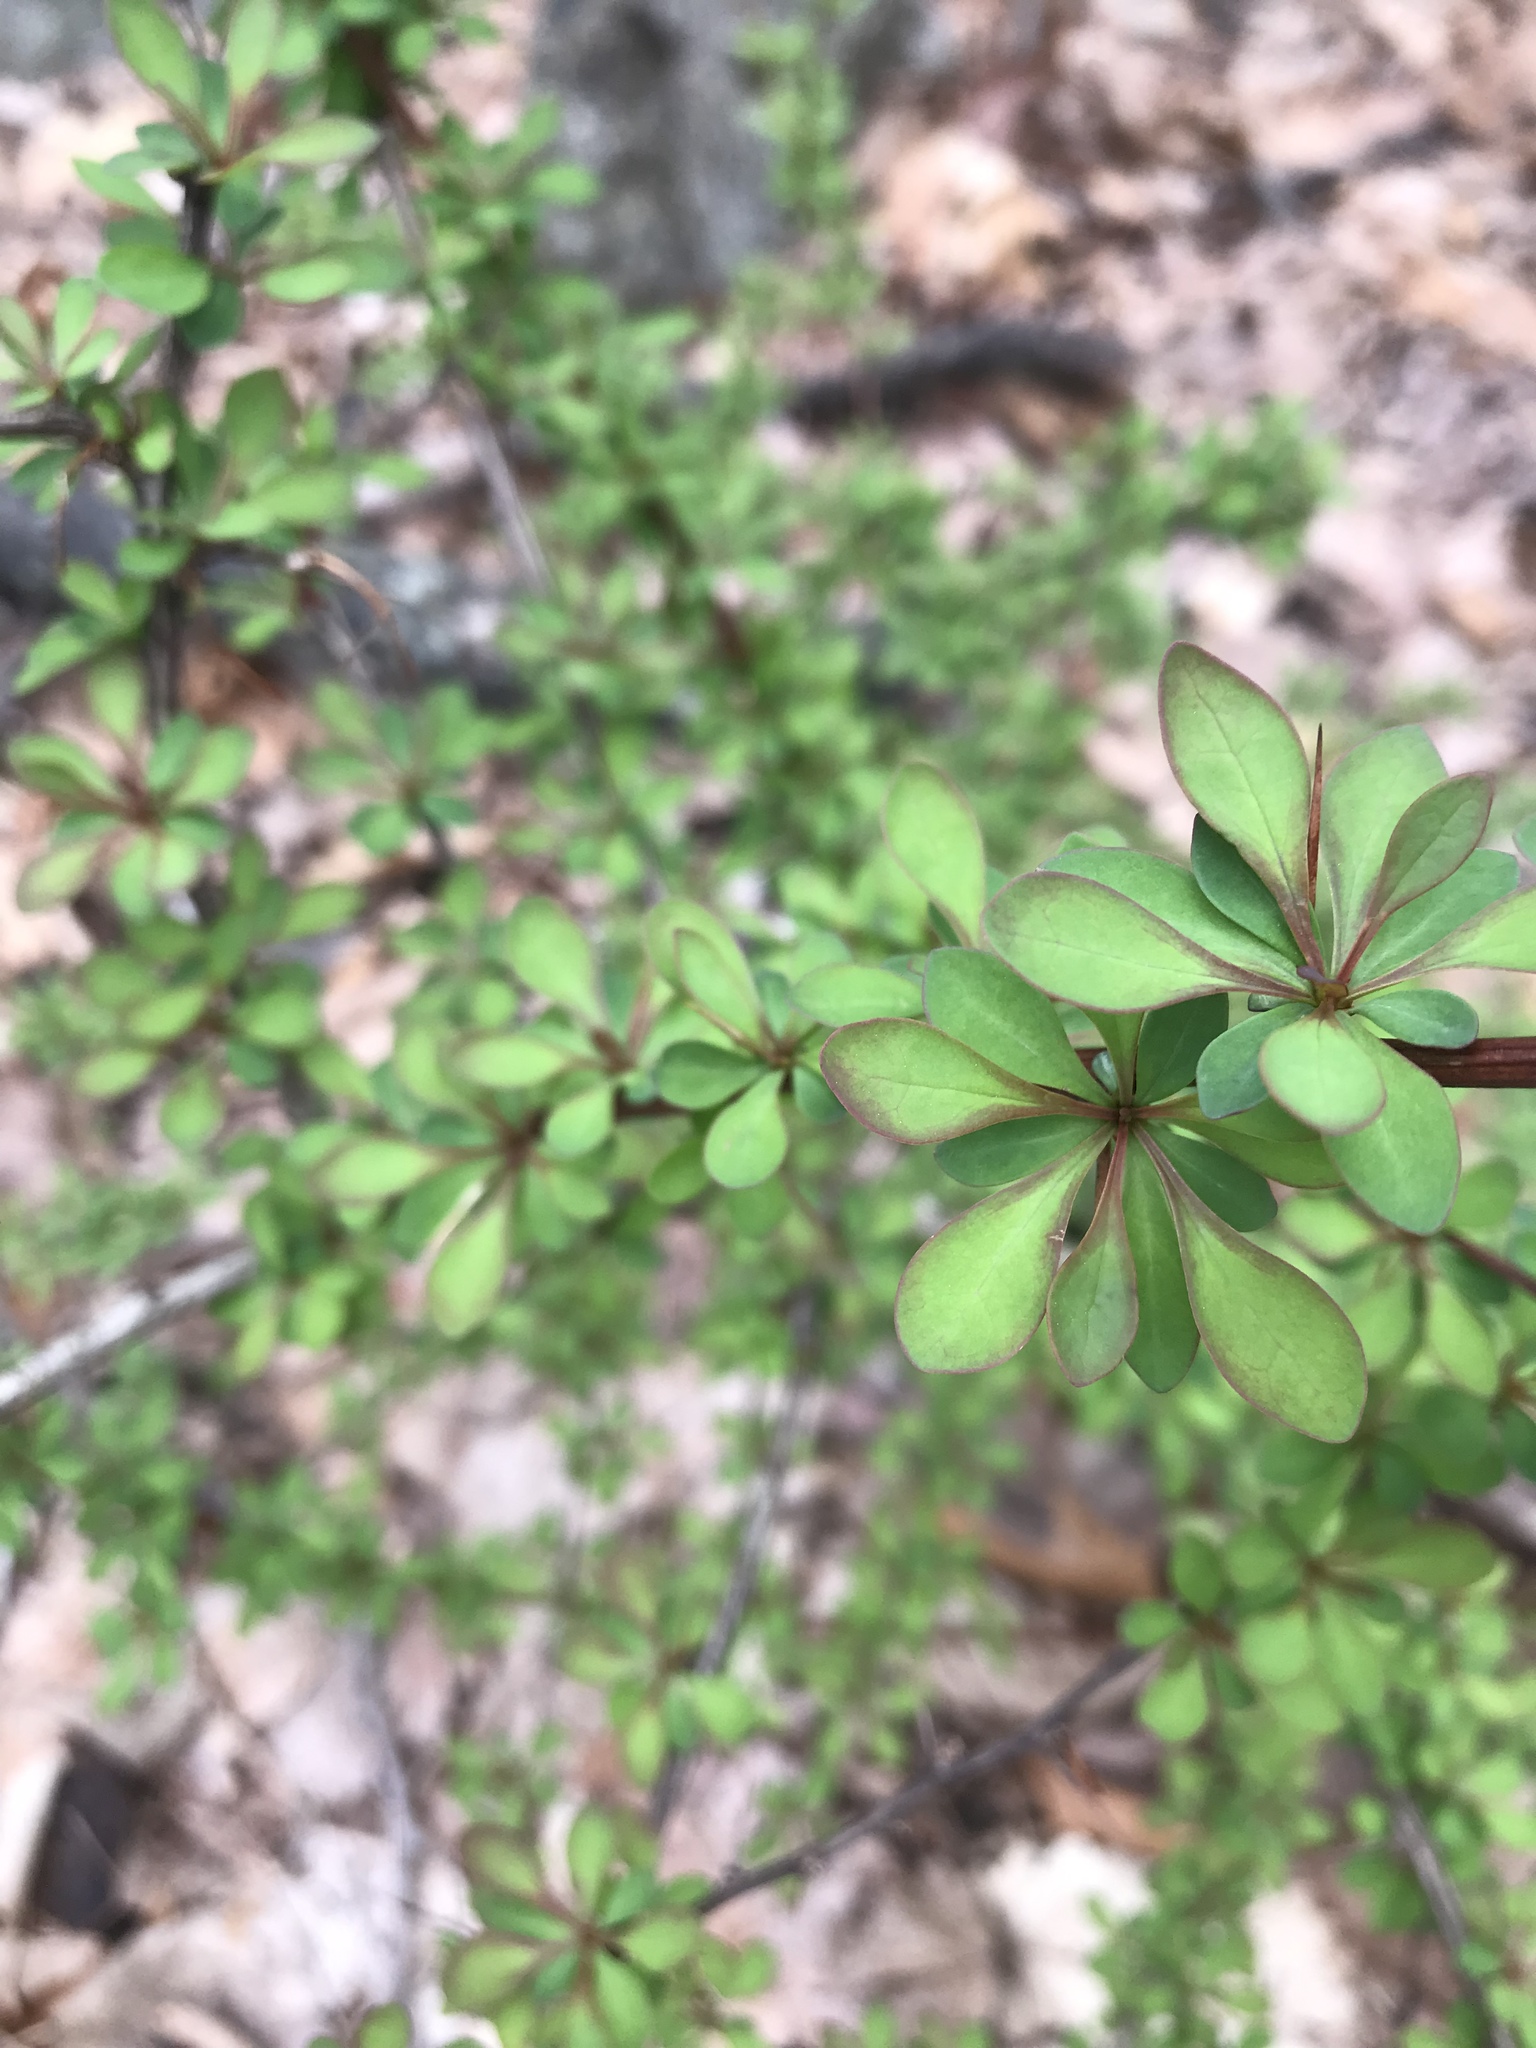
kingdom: Plantae
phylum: Tracheophyta
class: Magnoliopsida
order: Ranunculales
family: Berberidaceae
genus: Berberis
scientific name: Berberis thunbergii
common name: Japanese barberry
